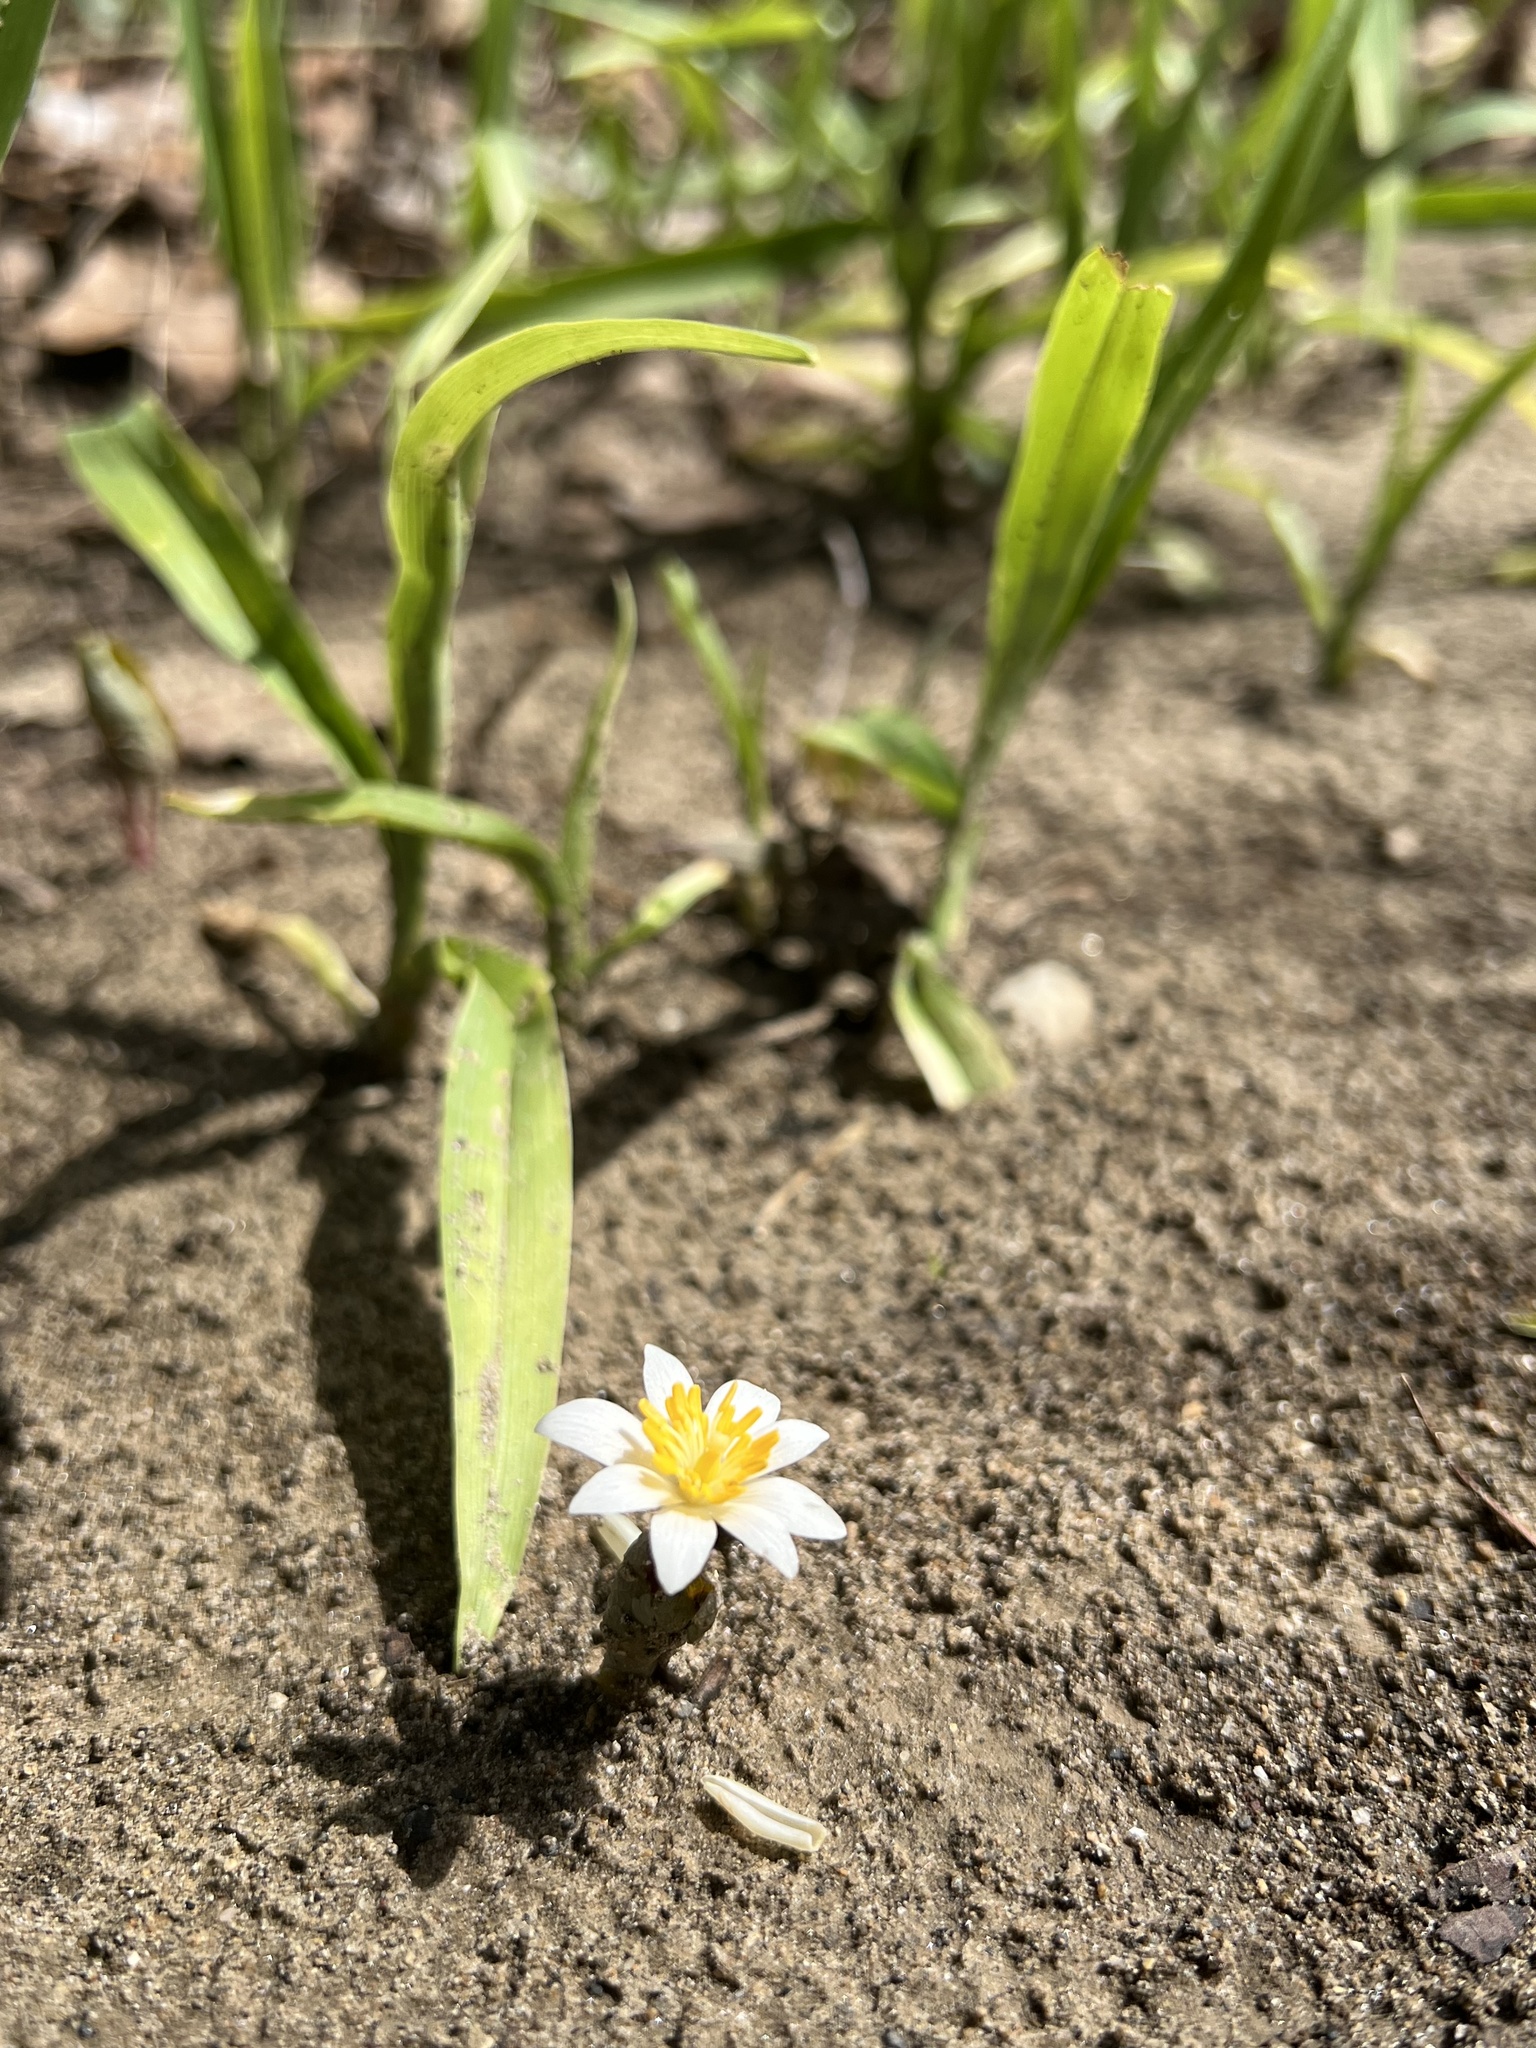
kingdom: Plantae
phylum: Tracheophyta
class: Magnoliopsida
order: Ranunculales
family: Papaveraceae
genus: Sanguinaria
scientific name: Sanguinaria canadensis
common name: Bloodroot
